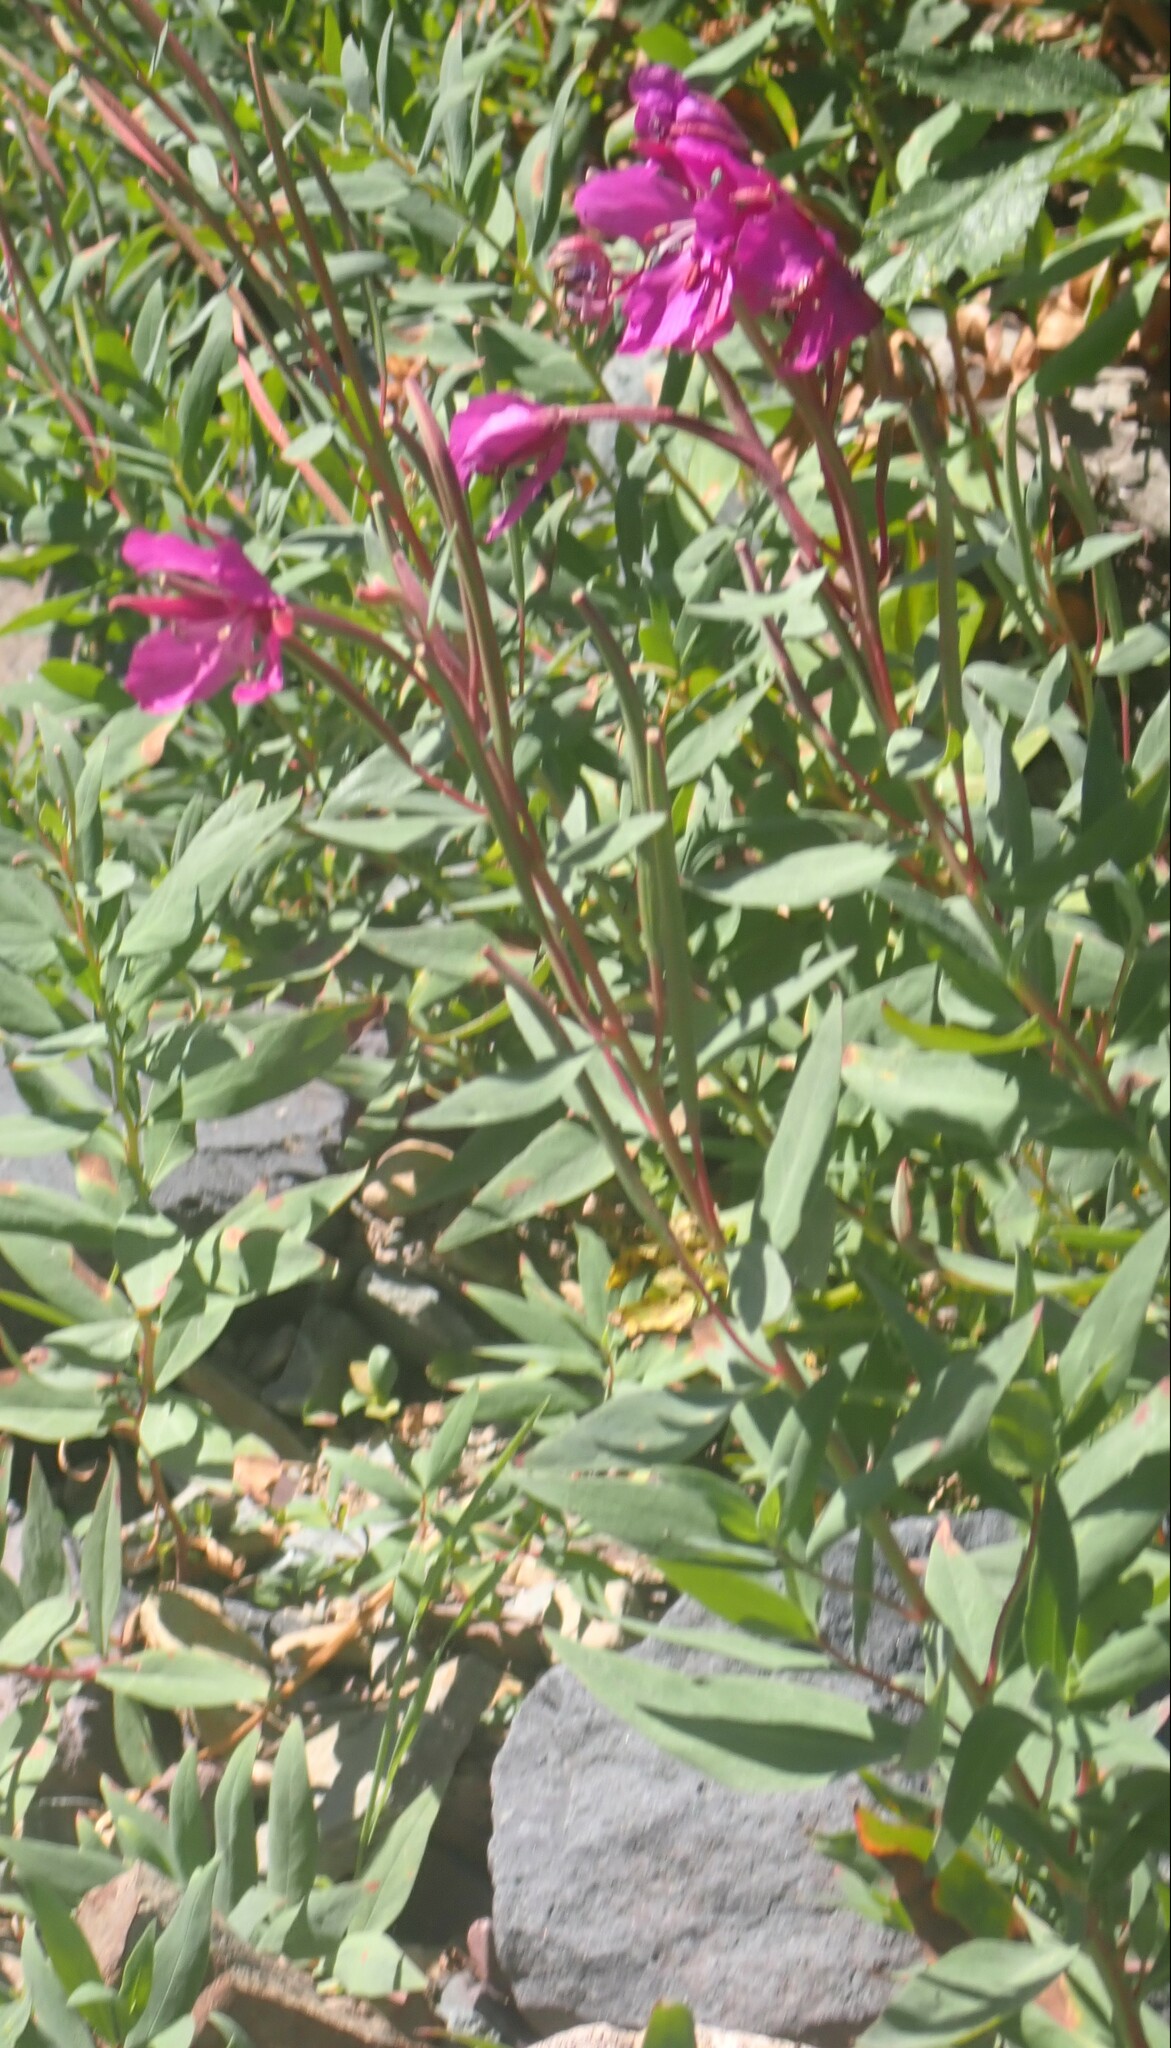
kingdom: Plantae
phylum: Tracheophyta
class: Magnoliopsida
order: Myrtales
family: Onagraceae
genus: Chamaenerion
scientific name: Chamaenerion latifolium
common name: Dwarf fireweed
